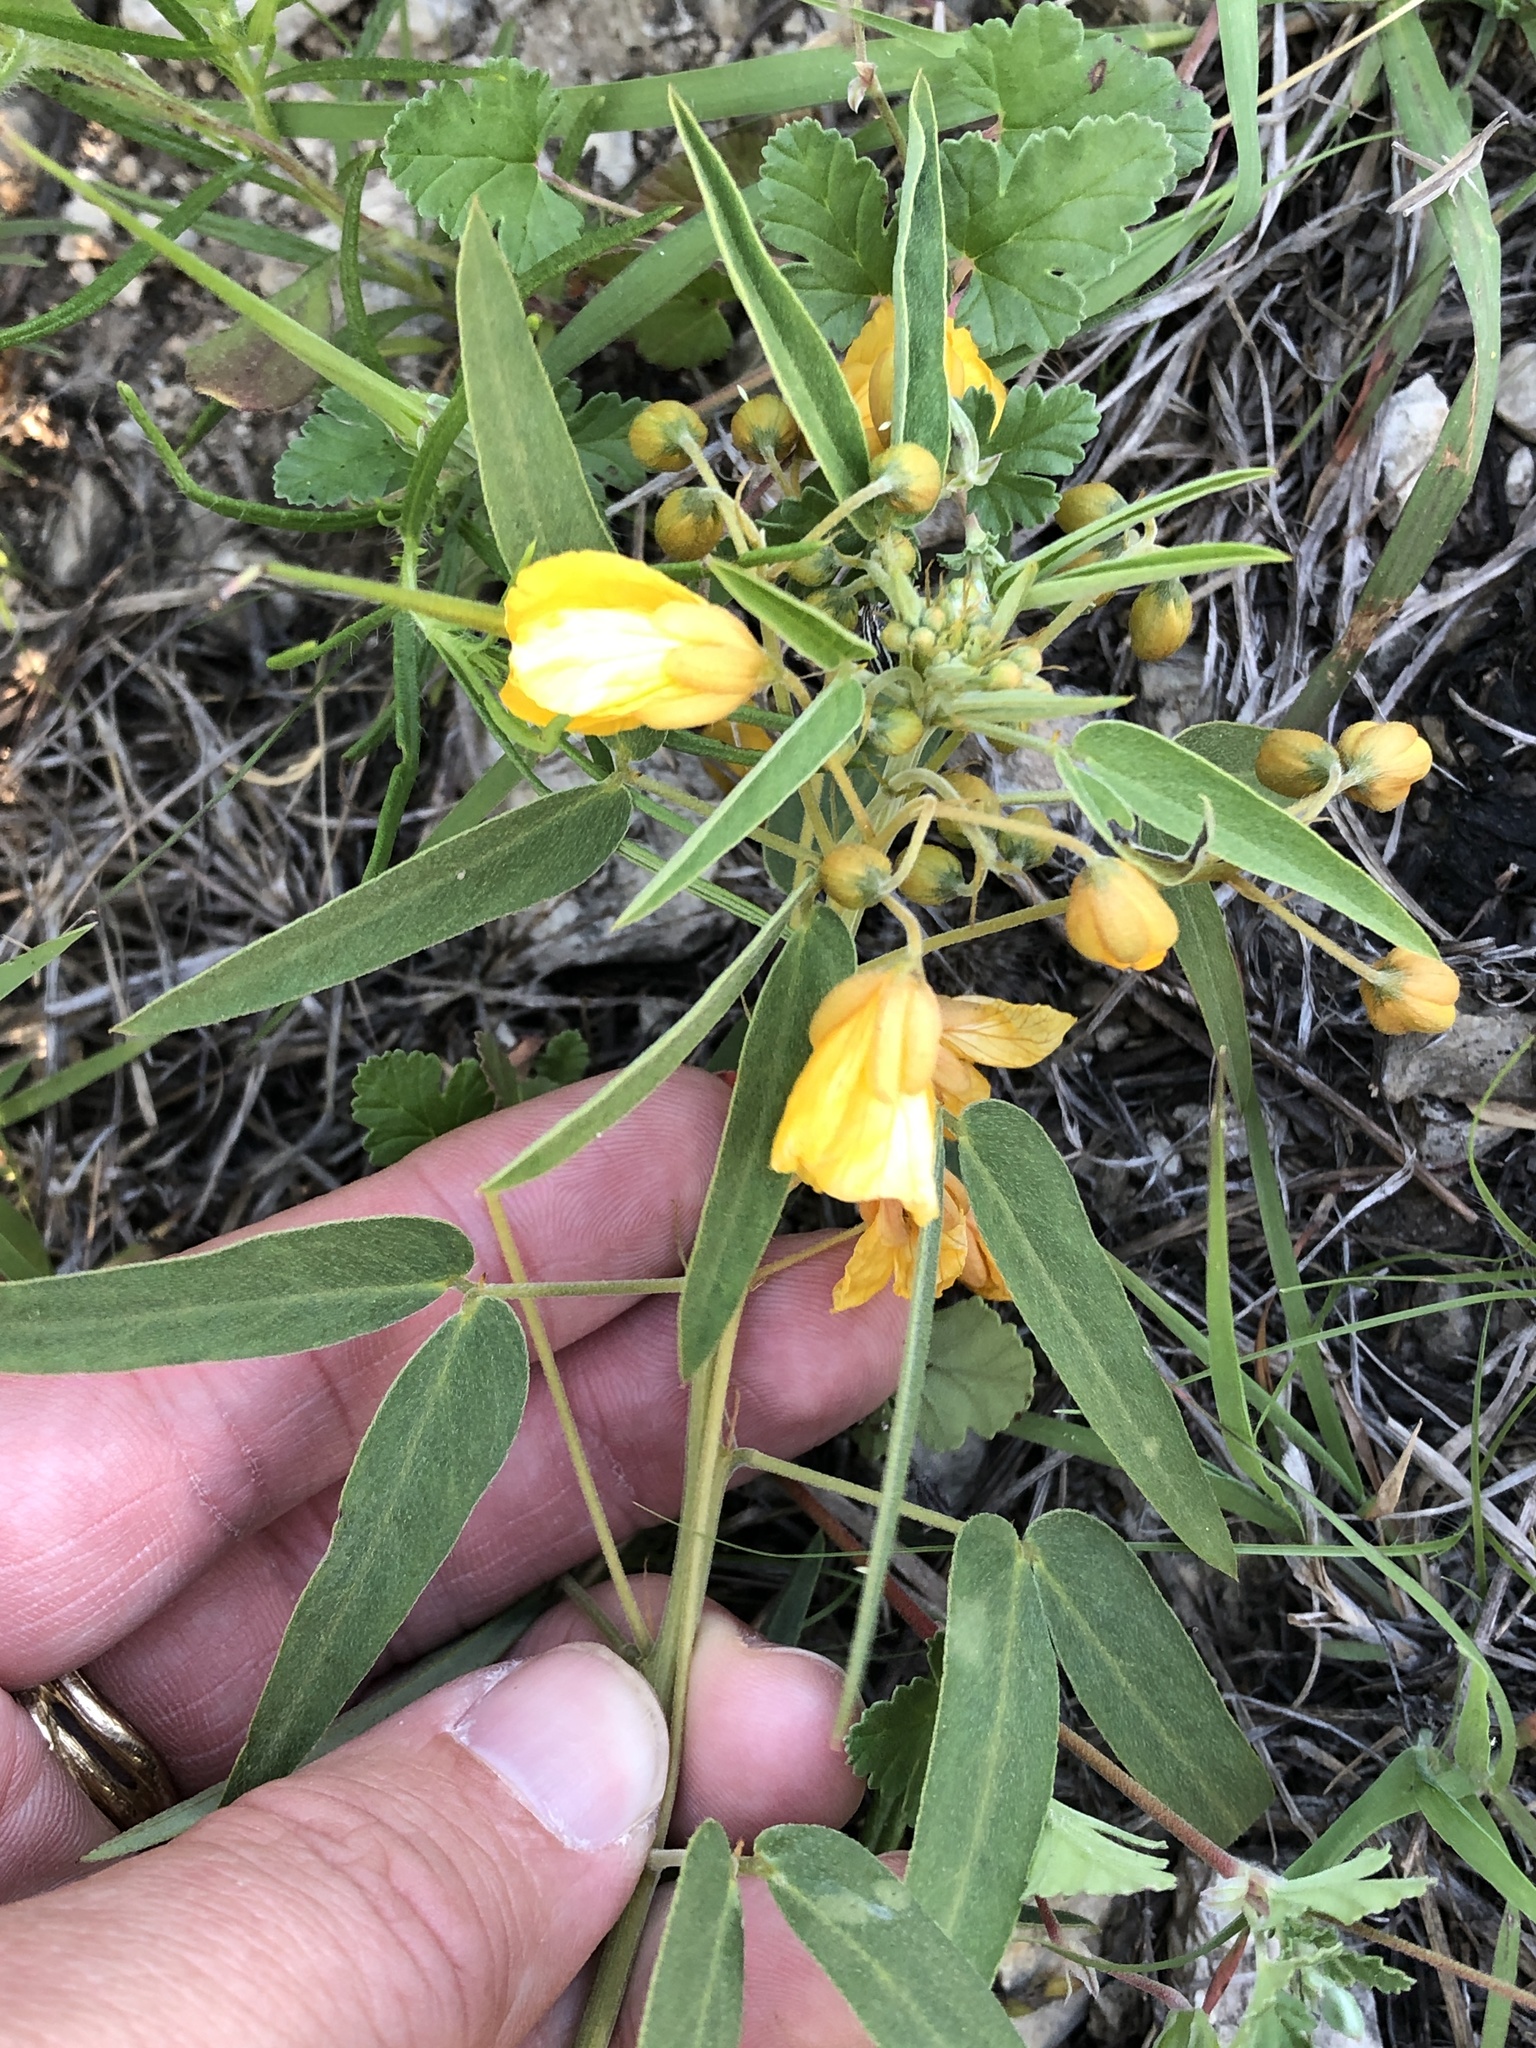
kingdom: Plantae
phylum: Tracheophyta
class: Magnoliopsida
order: Fabales
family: Fabaceae
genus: Senna
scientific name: Senna roemeriana
